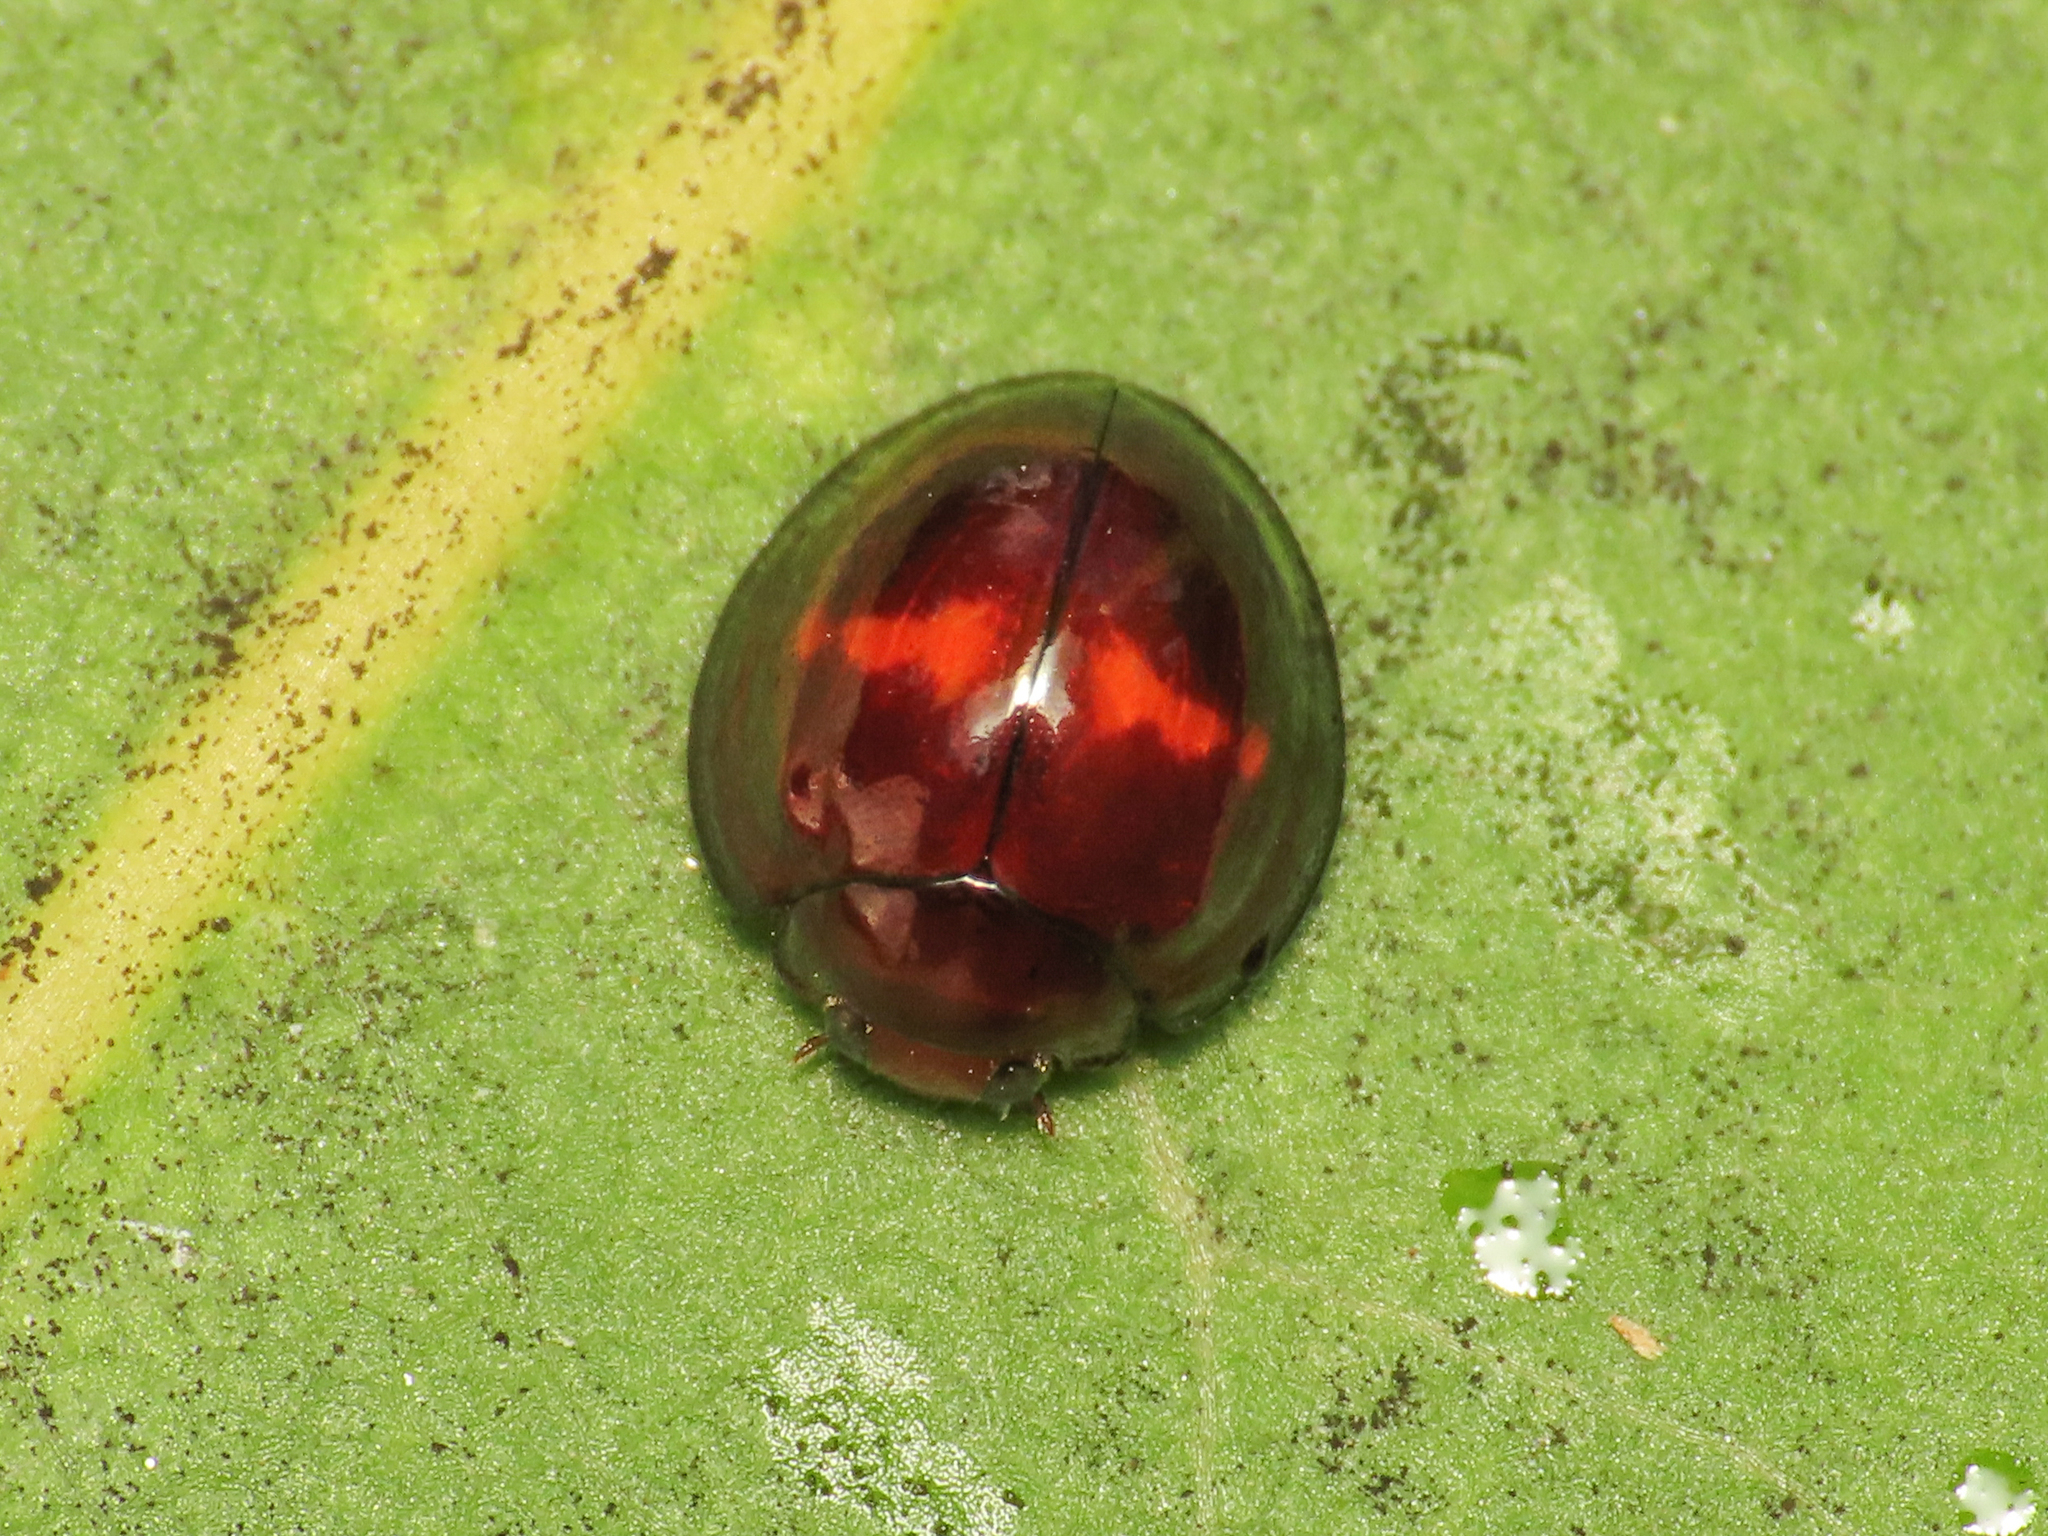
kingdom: Animalia
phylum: Arthropoda
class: Insecta
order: Coleoptera
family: Coccinellidae
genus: Chilocorus
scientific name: Chilocorus bipustulatus
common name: Heather ladybird
